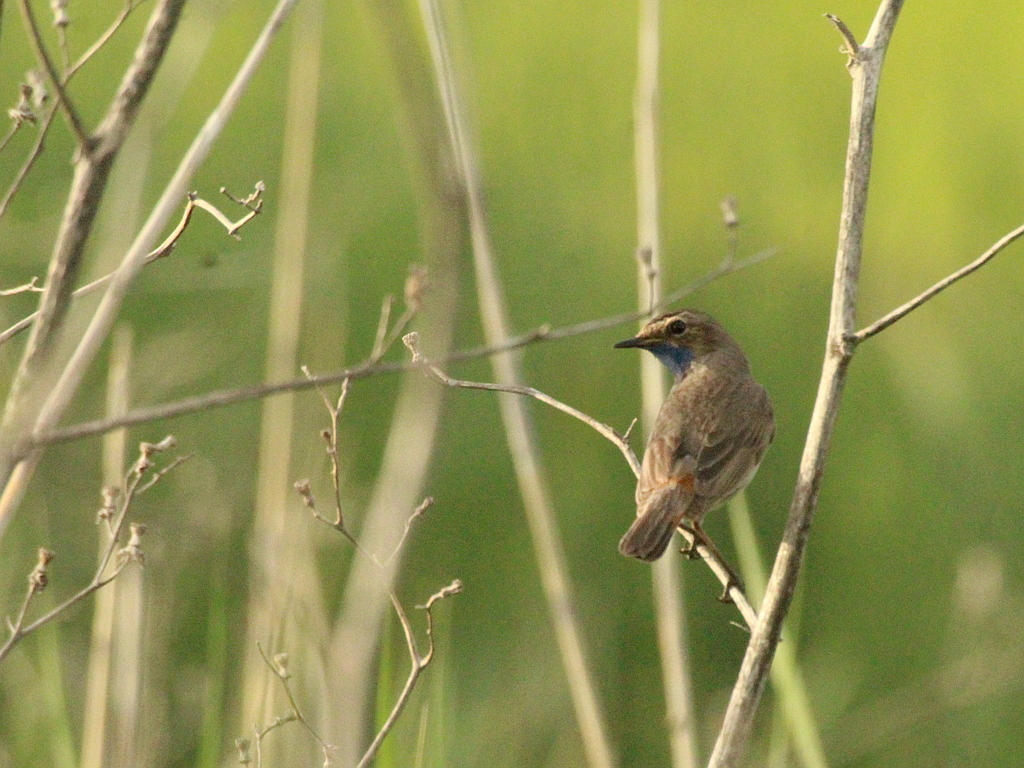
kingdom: Animalia
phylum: Chordata
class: Aves
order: Passeriformes
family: Muscicapidae
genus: Luscinia
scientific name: Luscinia svecica
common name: Bluethroat
